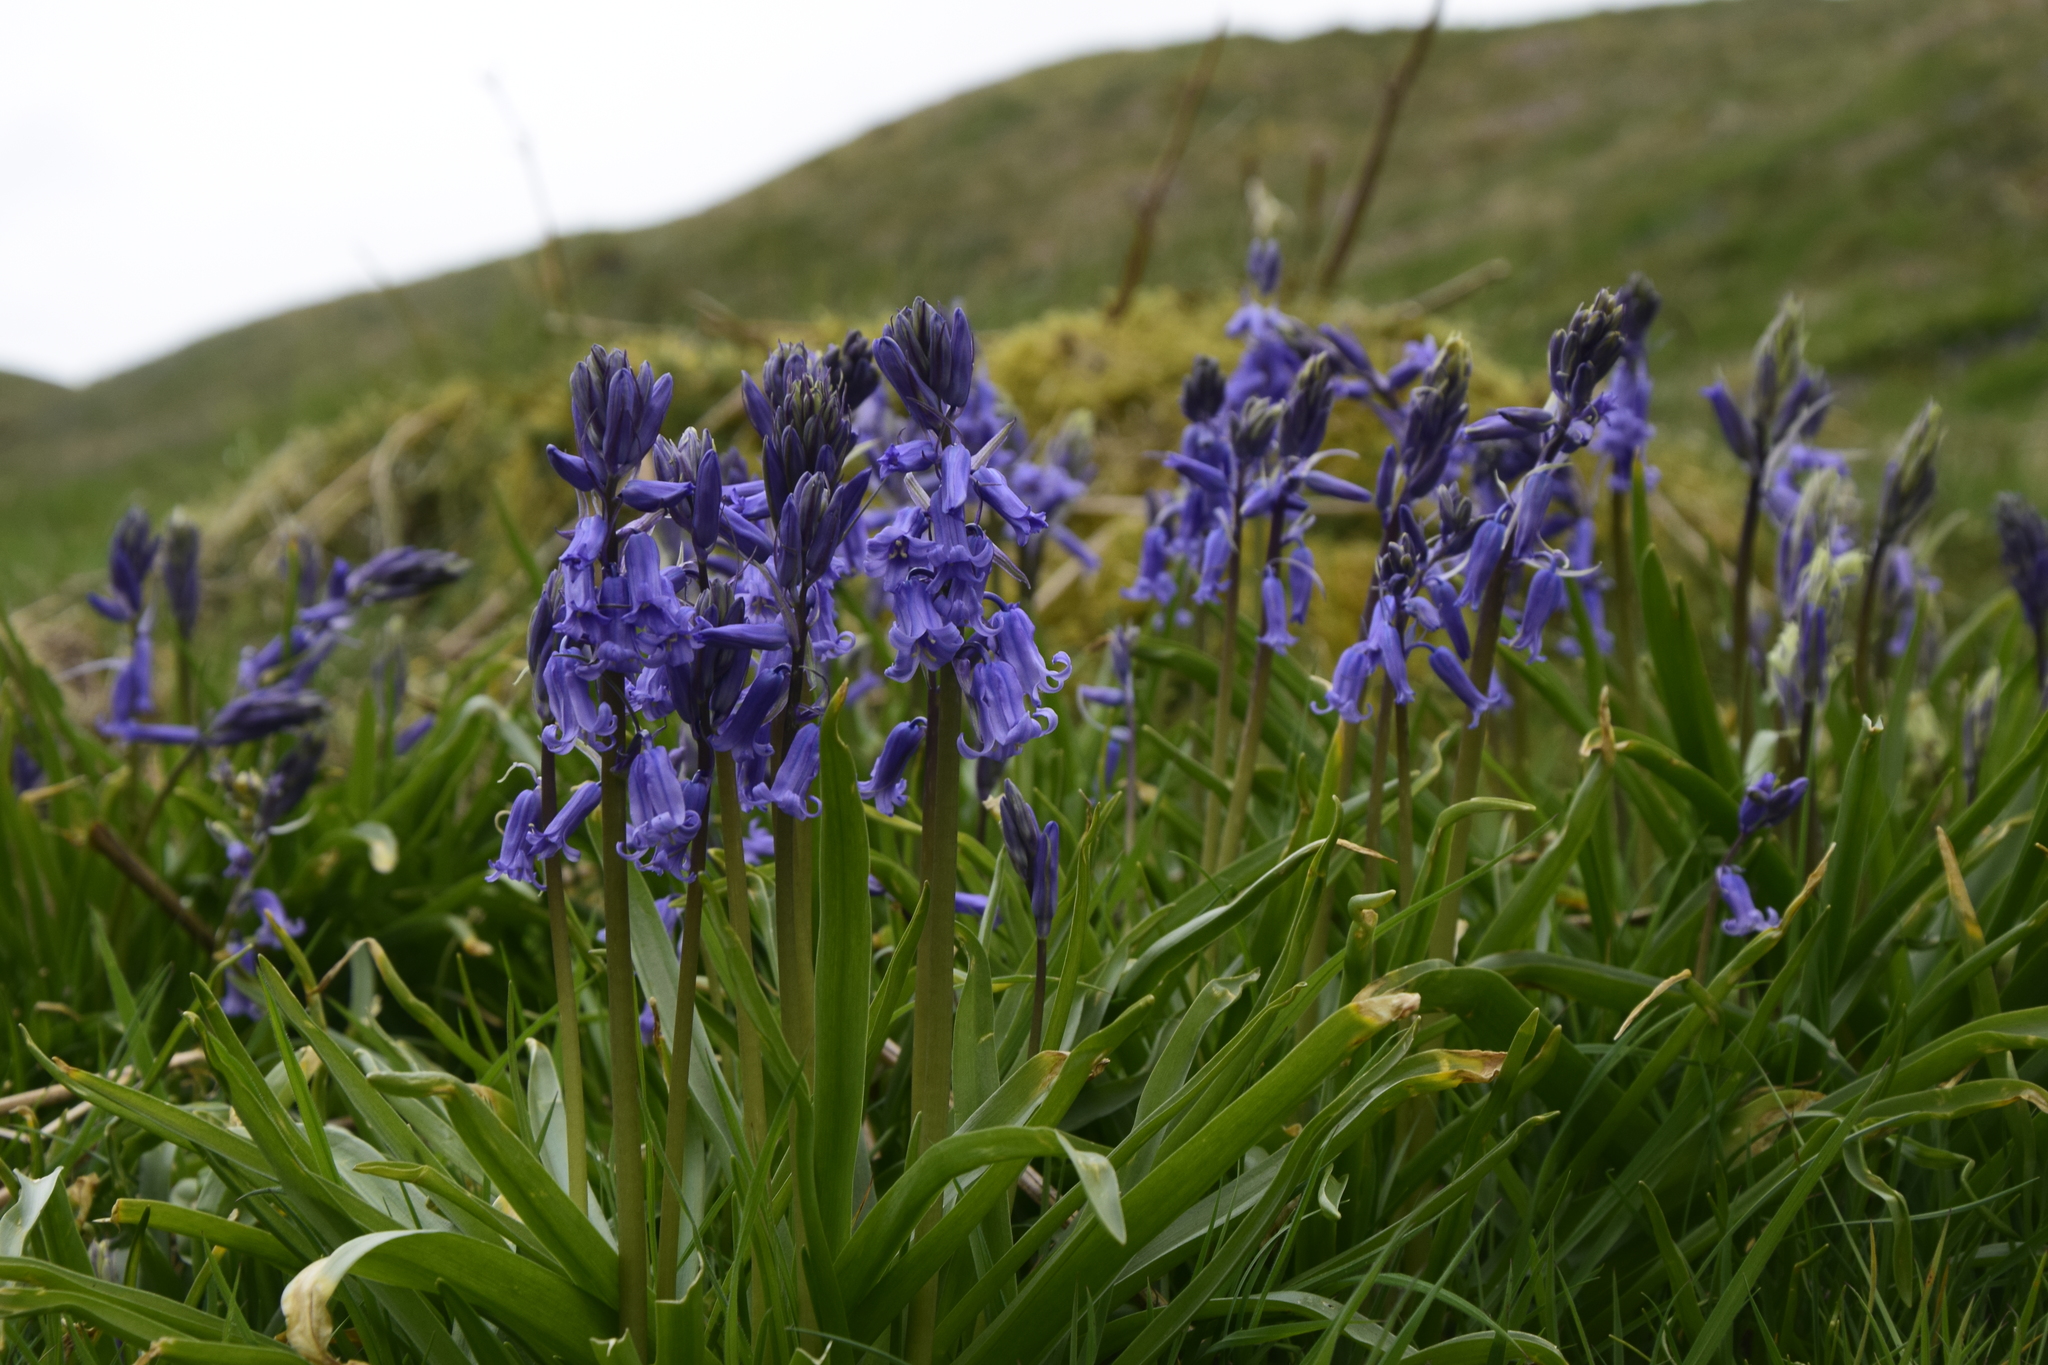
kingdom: Plantae
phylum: Tracheophyta
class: Liliopsida
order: Asparagales
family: Asparagaceae
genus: Hyacinthoides
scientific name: Hyacinthoides non-scripta
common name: Bluebell
